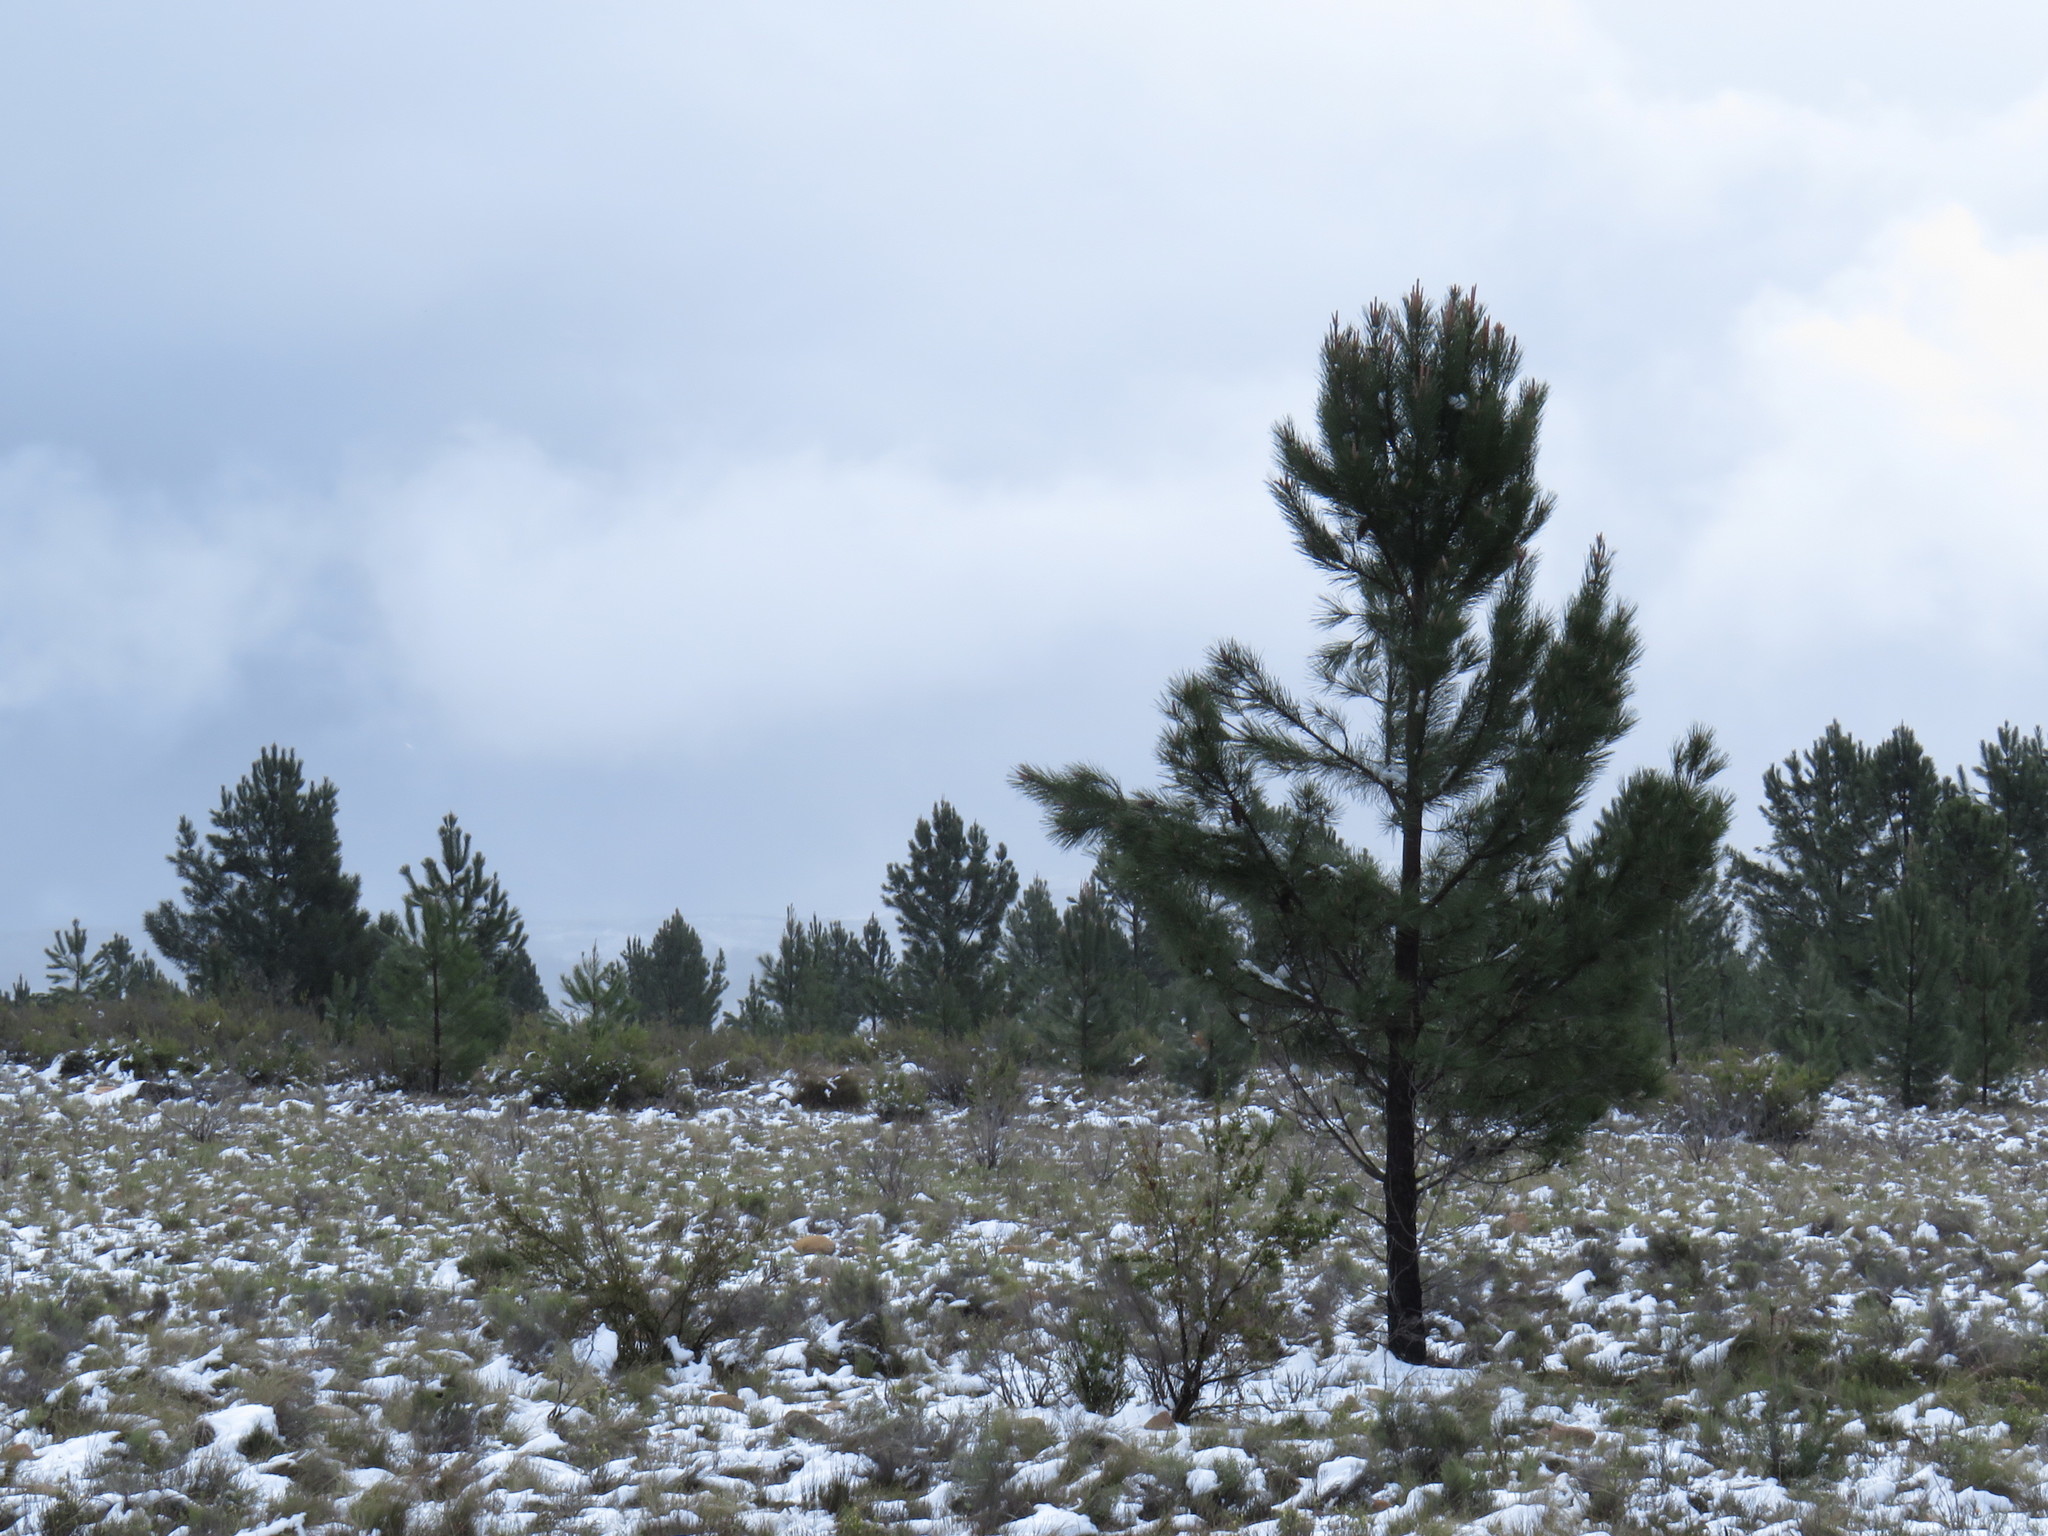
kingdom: Plantae
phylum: Tracheophyta
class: Pinopsida
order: Pinales
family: Pinaceae
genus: Pinus
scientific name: Pinus pinaster
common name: Maritime pine
